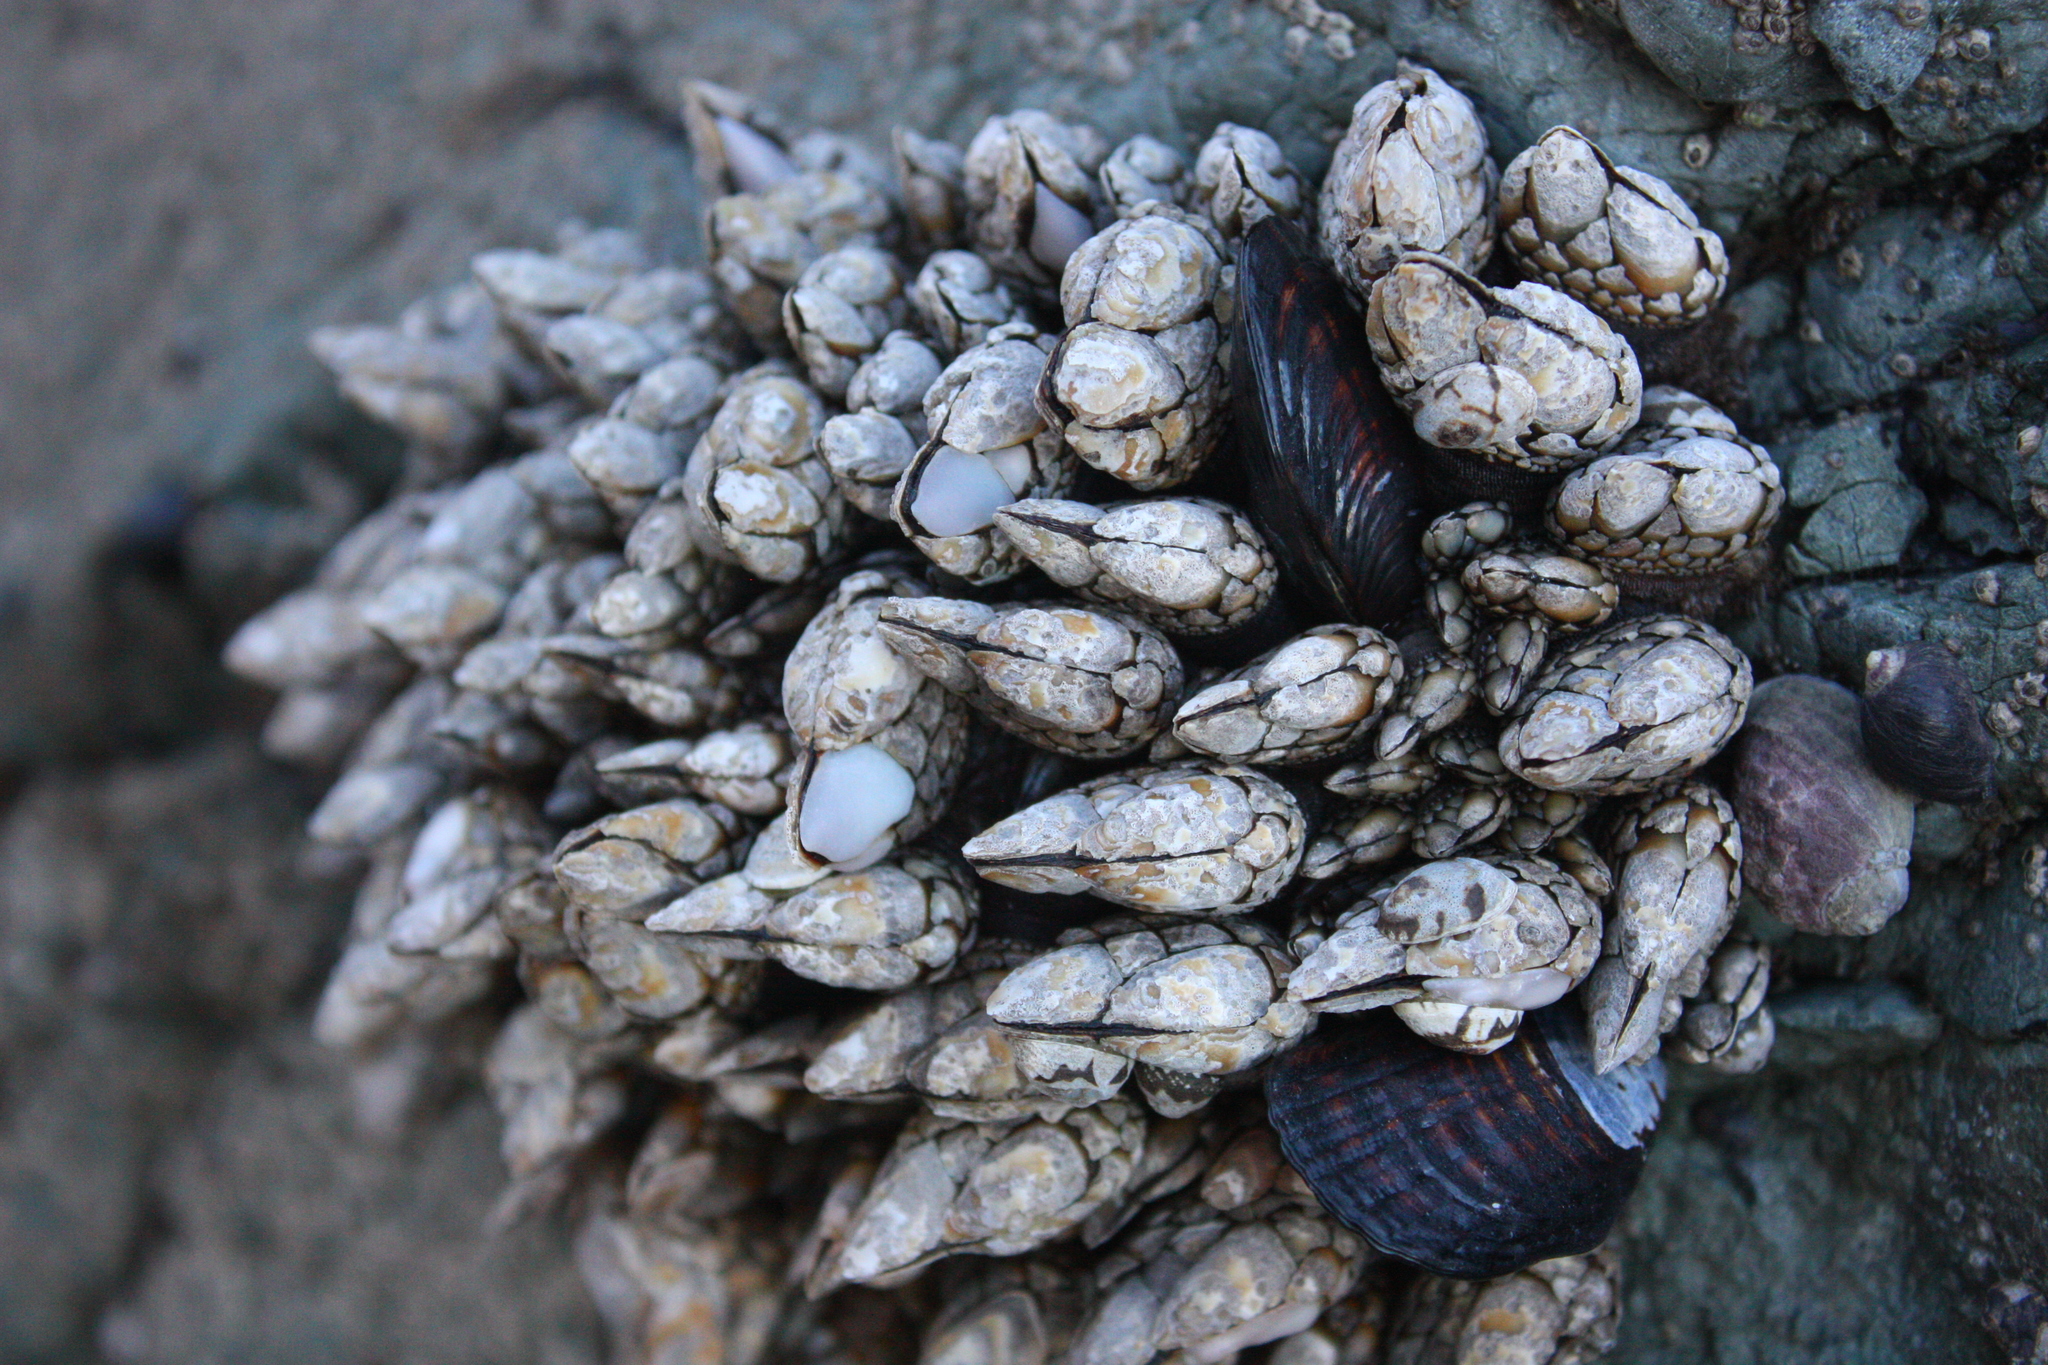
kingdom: Animalia
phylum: Arthropoda
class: Maxillopoda
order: Pedunculata
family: Pollicipedidae
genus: Pollicipes
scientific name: Pollicipes polymerus
